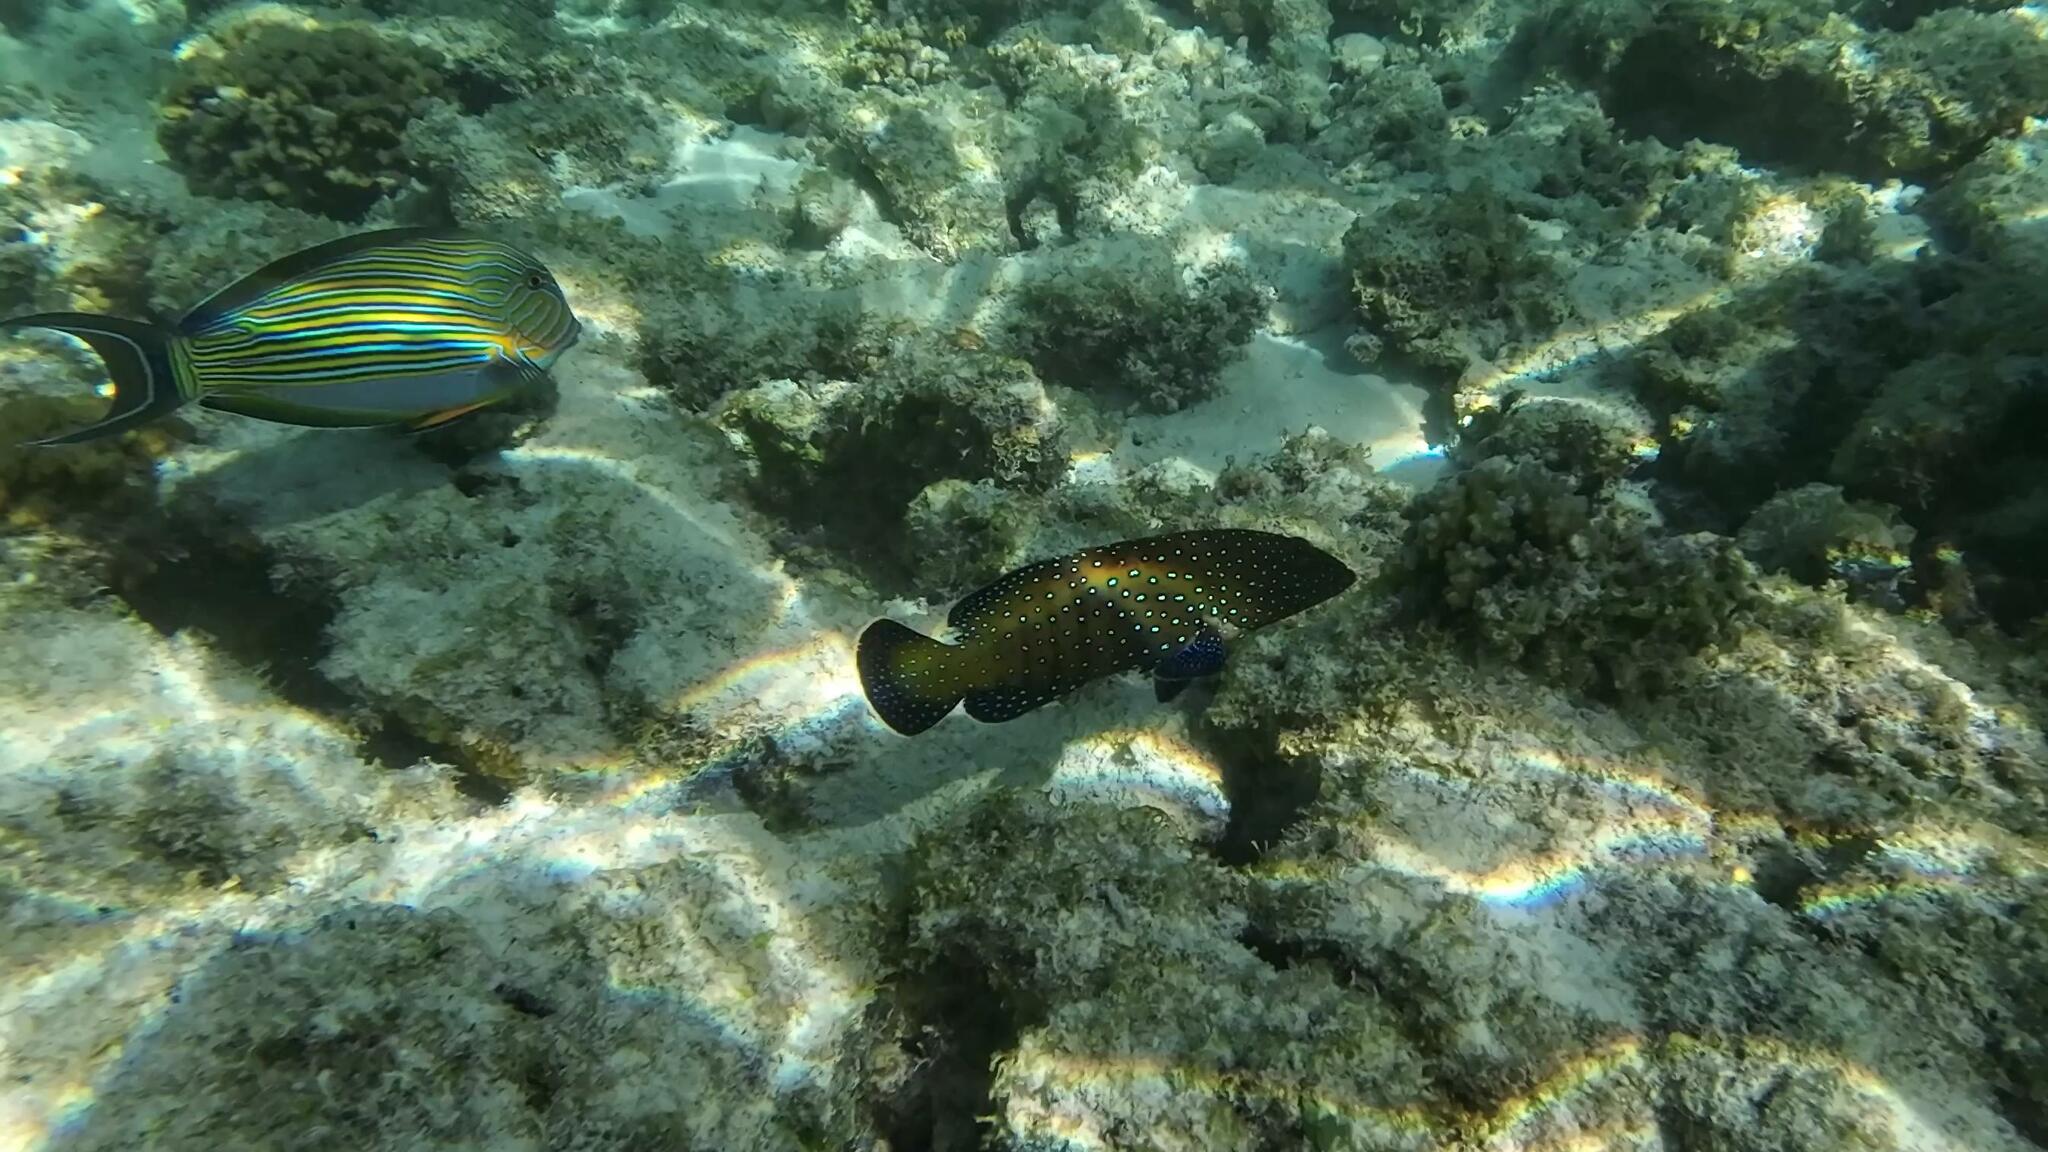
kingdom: Animalia
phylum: Chordata
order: Perciformes
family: Serranidae
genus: Cephalopholis
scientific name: Cephalopholis argus
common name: Peacock grouper
